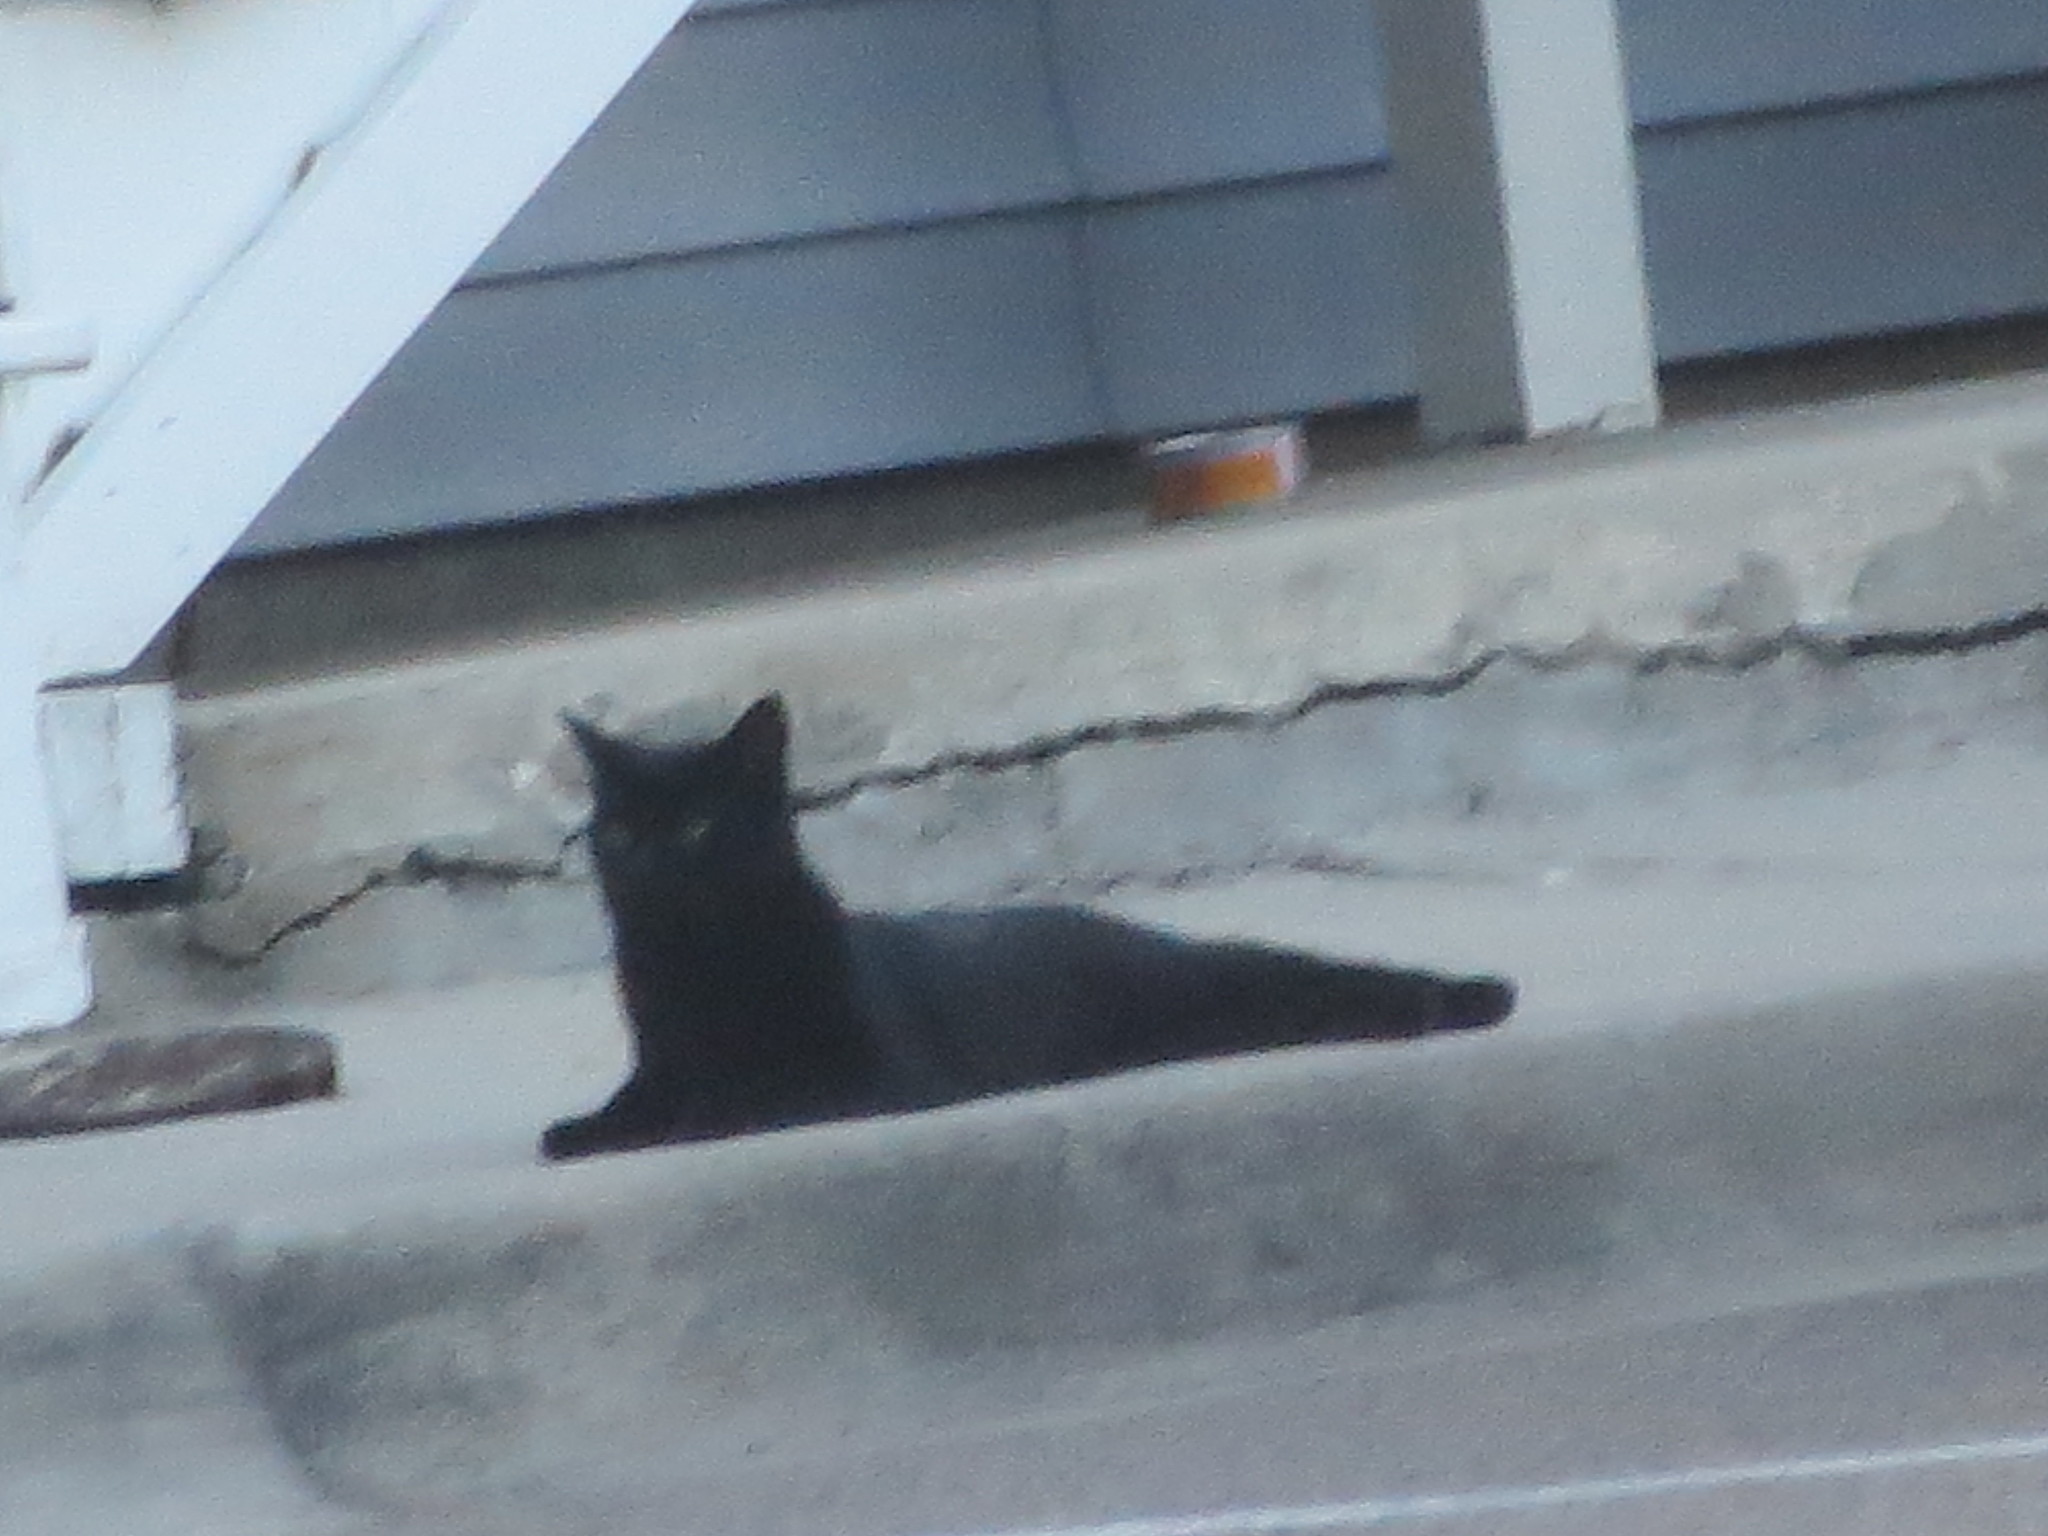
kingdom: Animalia
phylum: Chordata
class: Mammalia
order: Carnivora
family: Felidae
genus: Felis
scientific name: Felis catus
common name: Domestic cat
